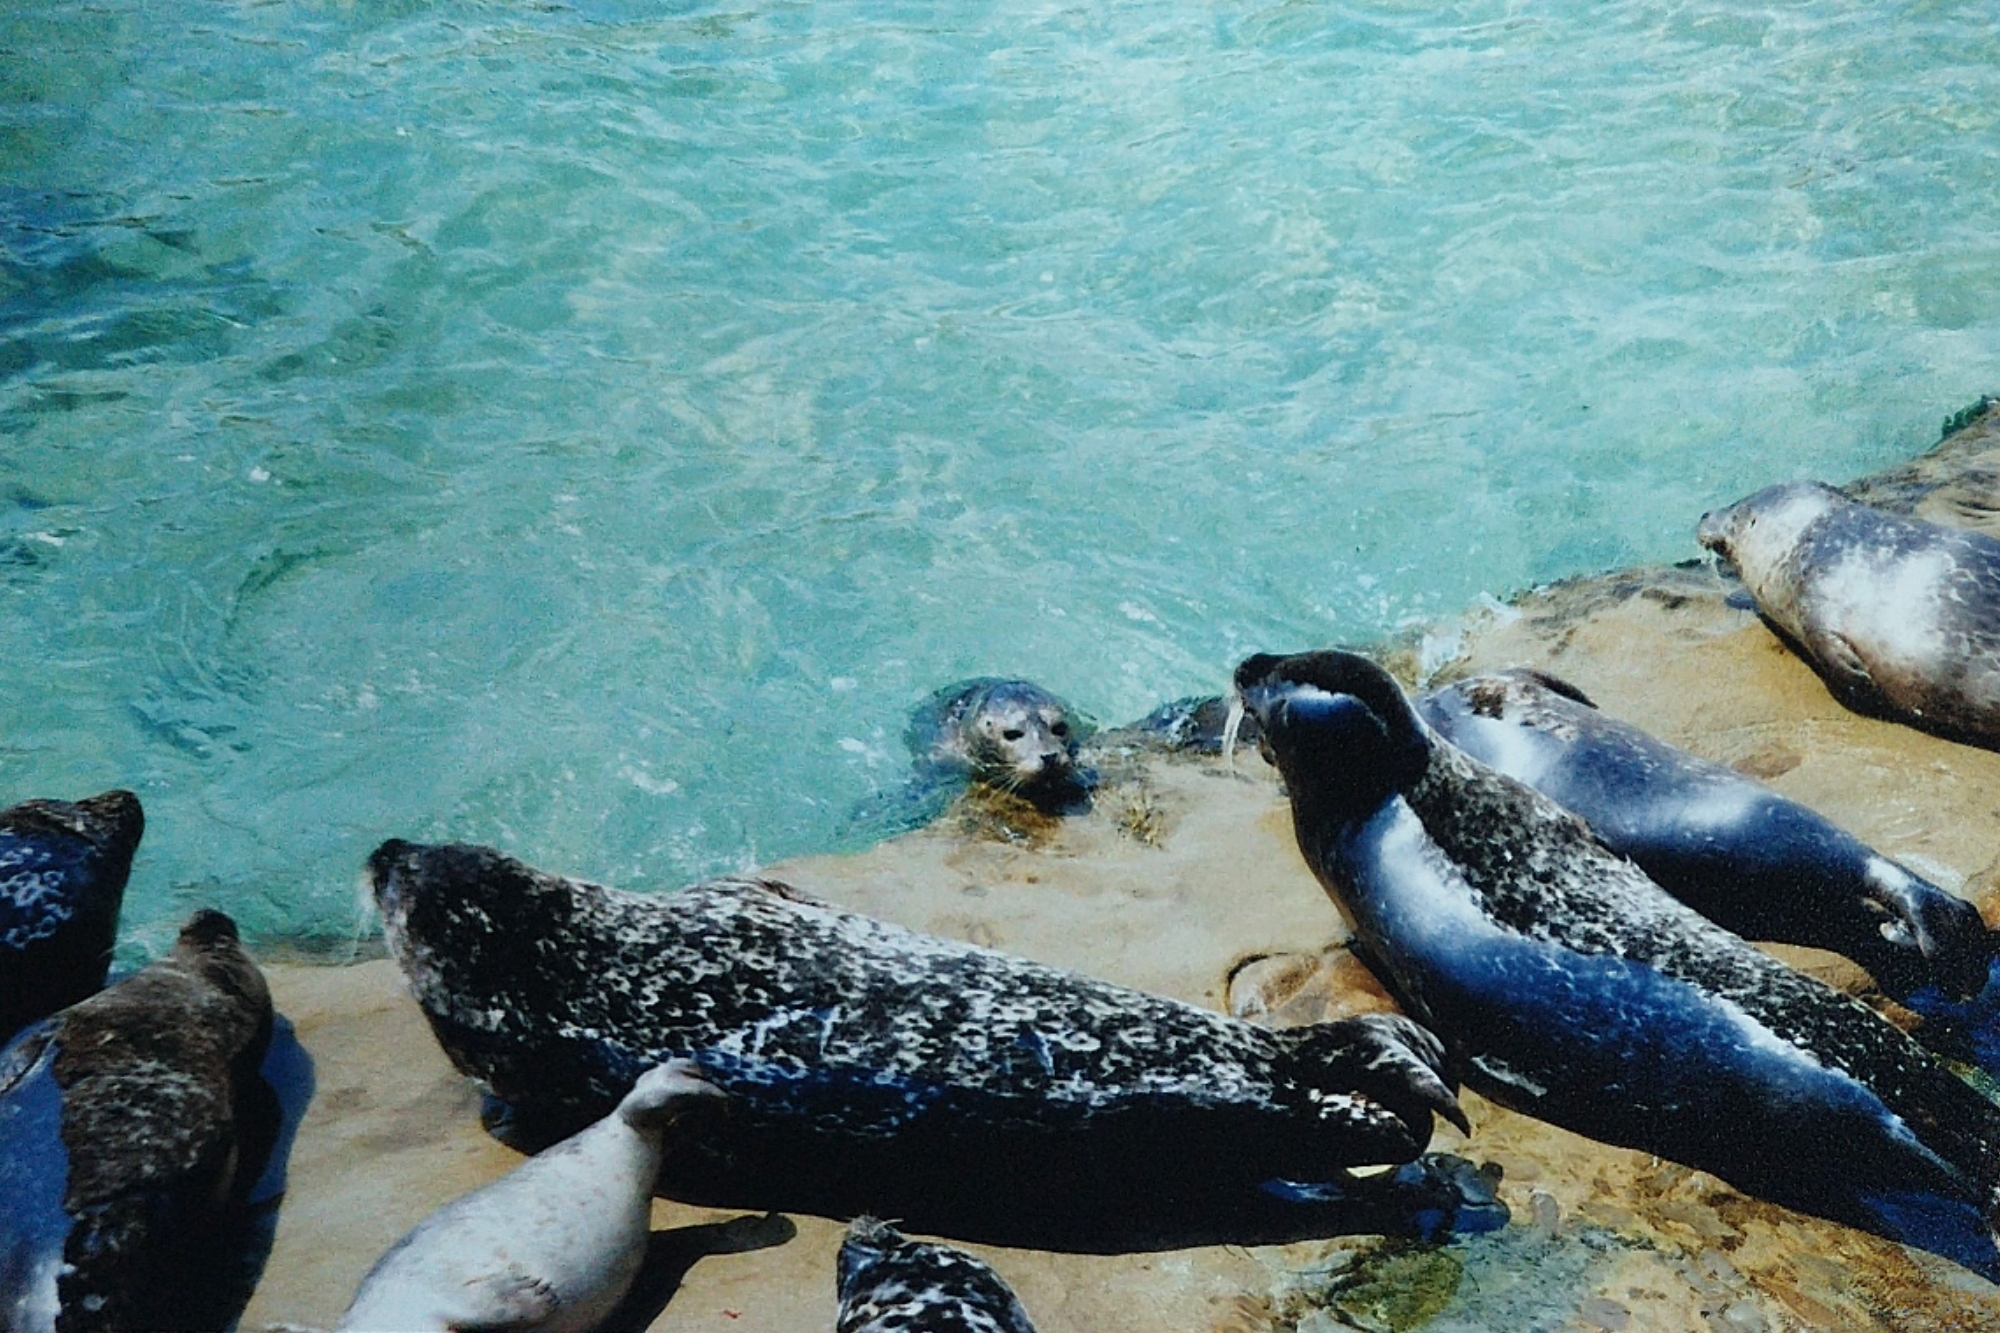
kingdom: Animalia
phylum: Chordata
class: Mammalia
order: Carnivora
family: Phocidae
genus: Phoca
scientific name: Phoca vitulina
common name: Harbor seal
